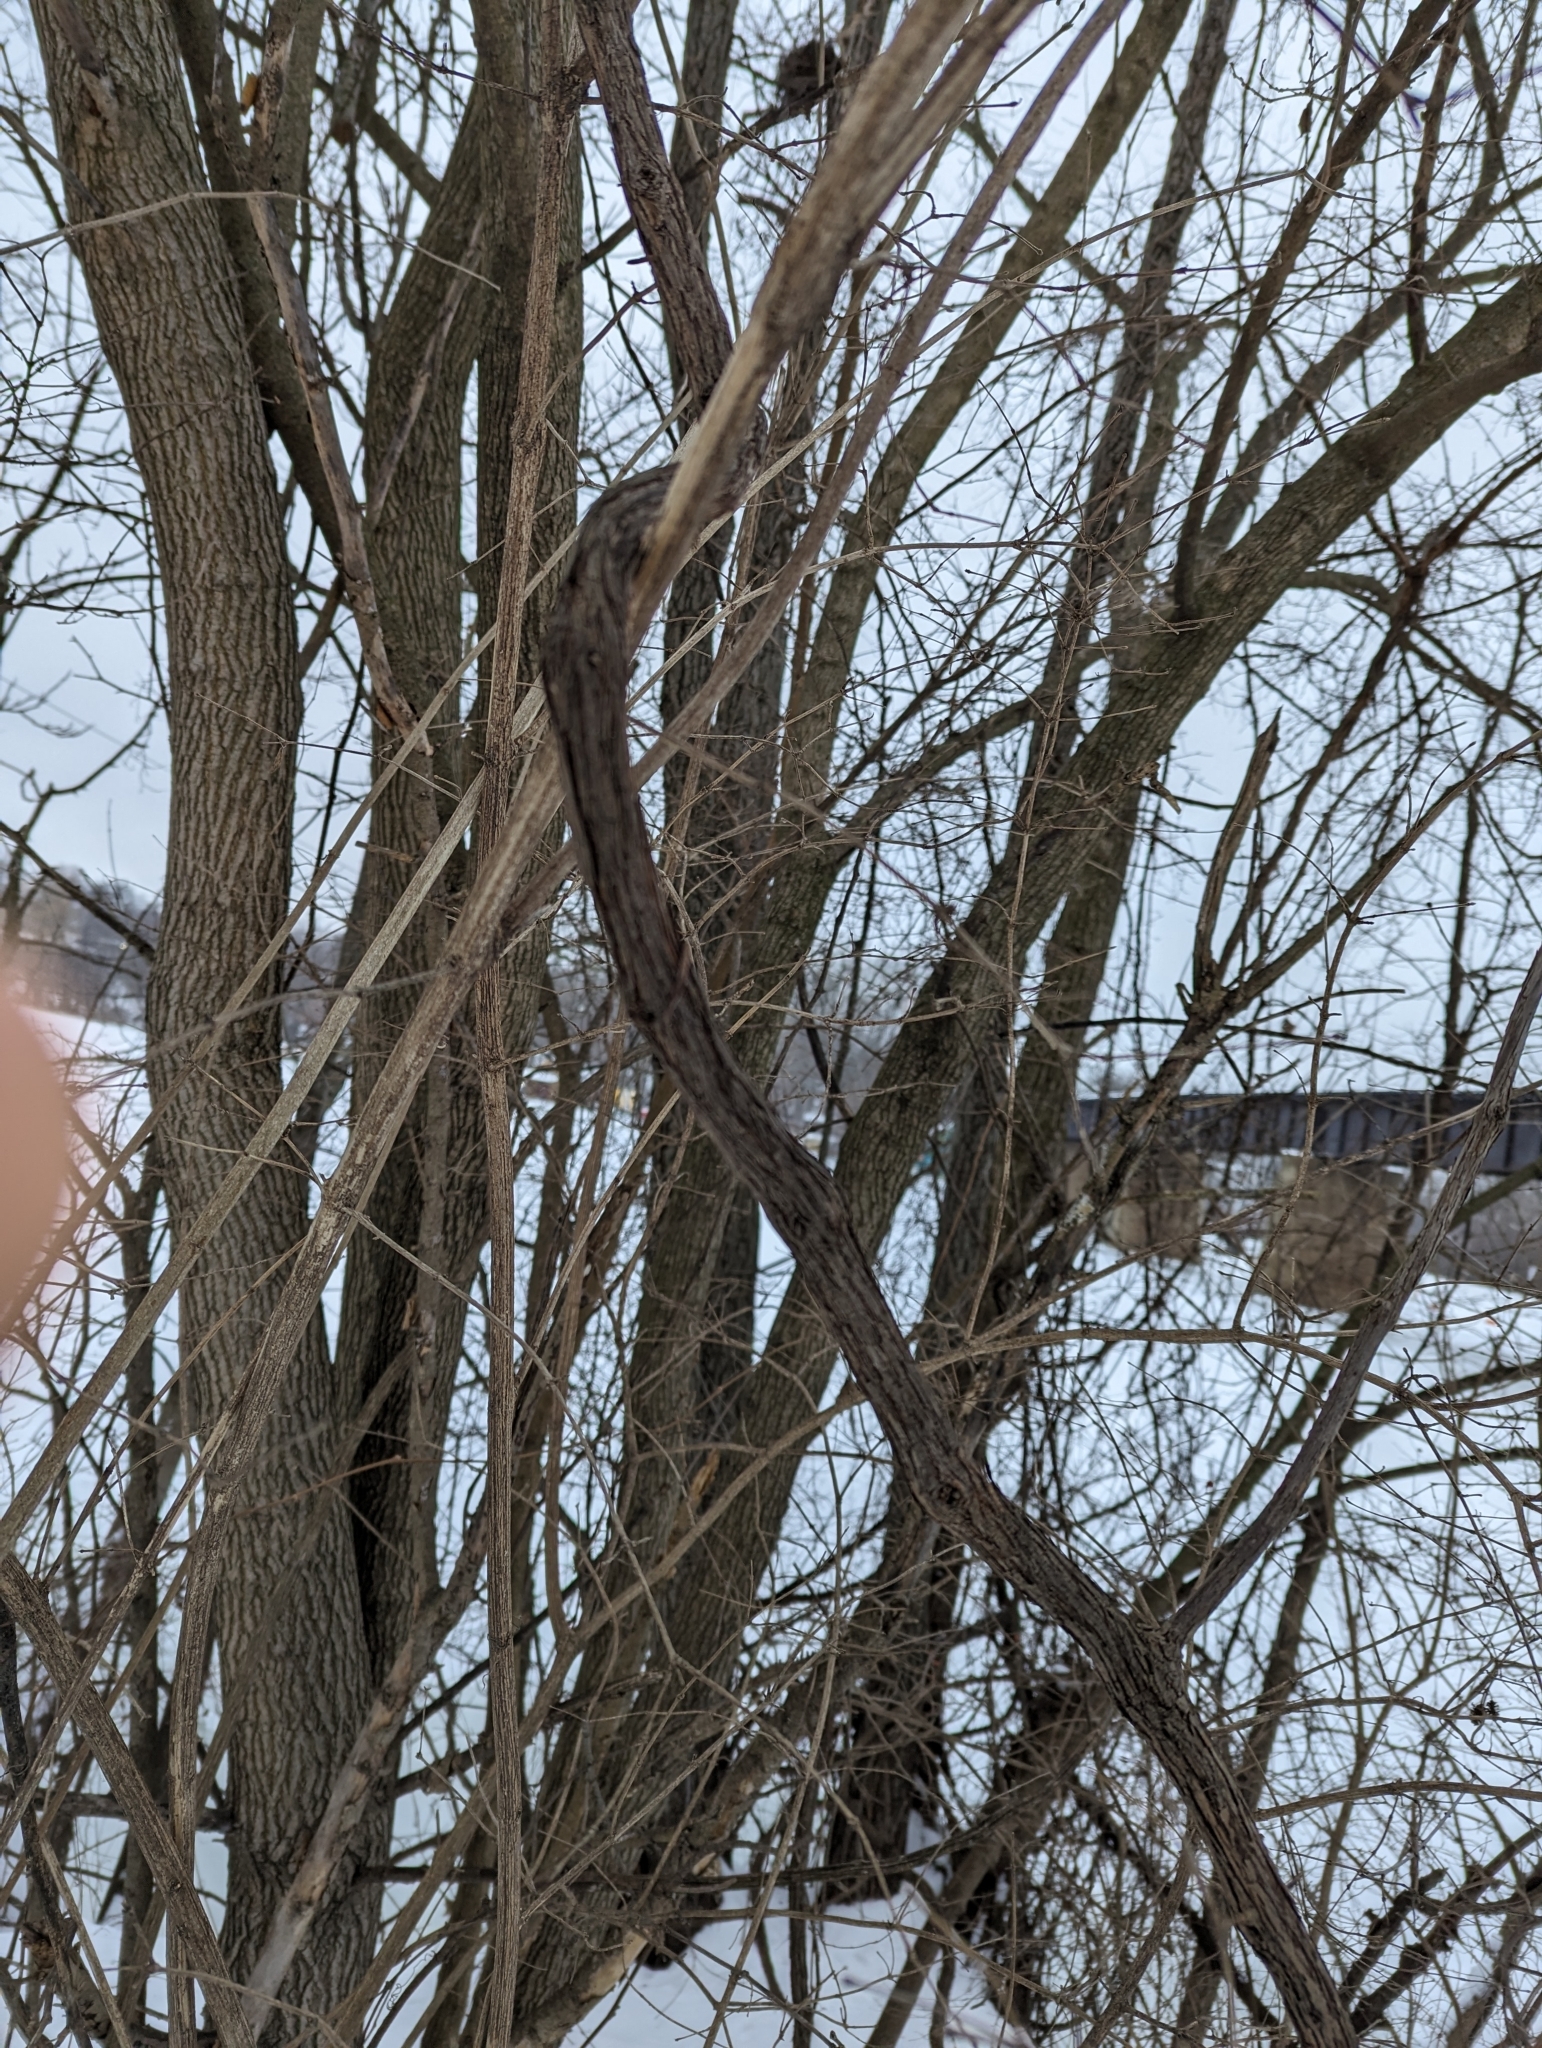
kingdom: Plantae
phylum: Tracheophyta
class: Magnoliopsida
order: Vitales
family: Vitaceae
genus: Vitis
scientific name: Vitis riparia
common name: Frost grape
